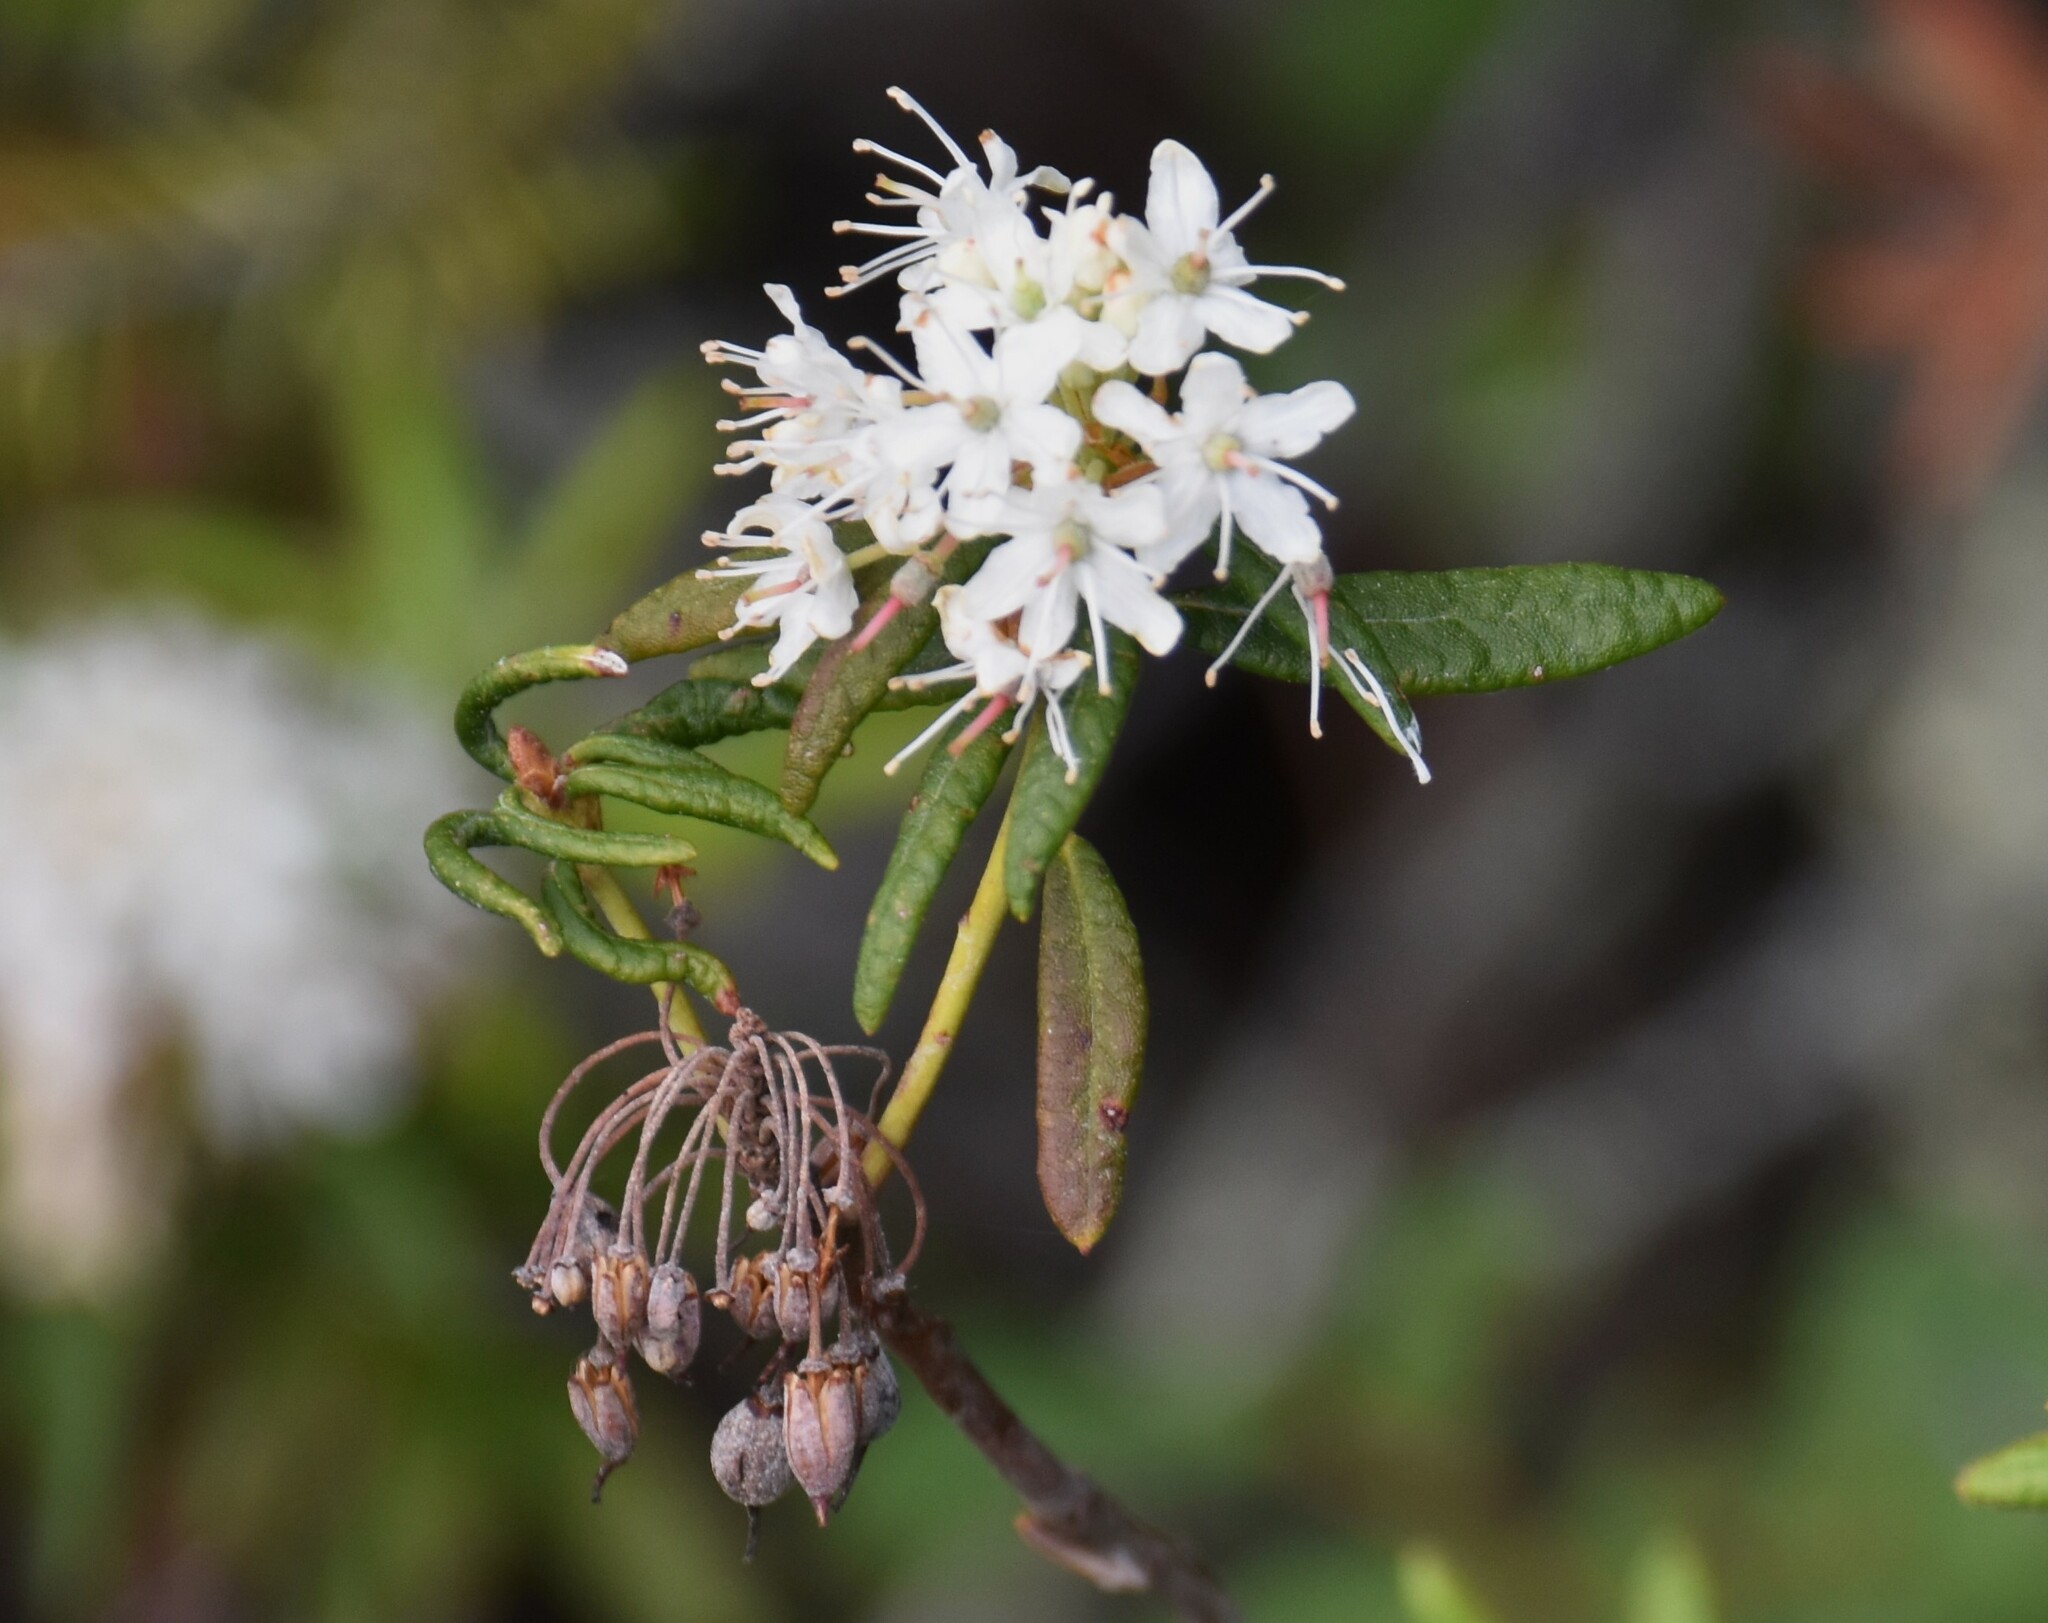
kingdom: Plantae
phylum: Tracheophyta
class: Magnoliopsida
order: Ericales
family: Ericaceae
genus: Rhododendron
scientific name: Rhododendron groenlandicum
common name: Bog labrador tea
